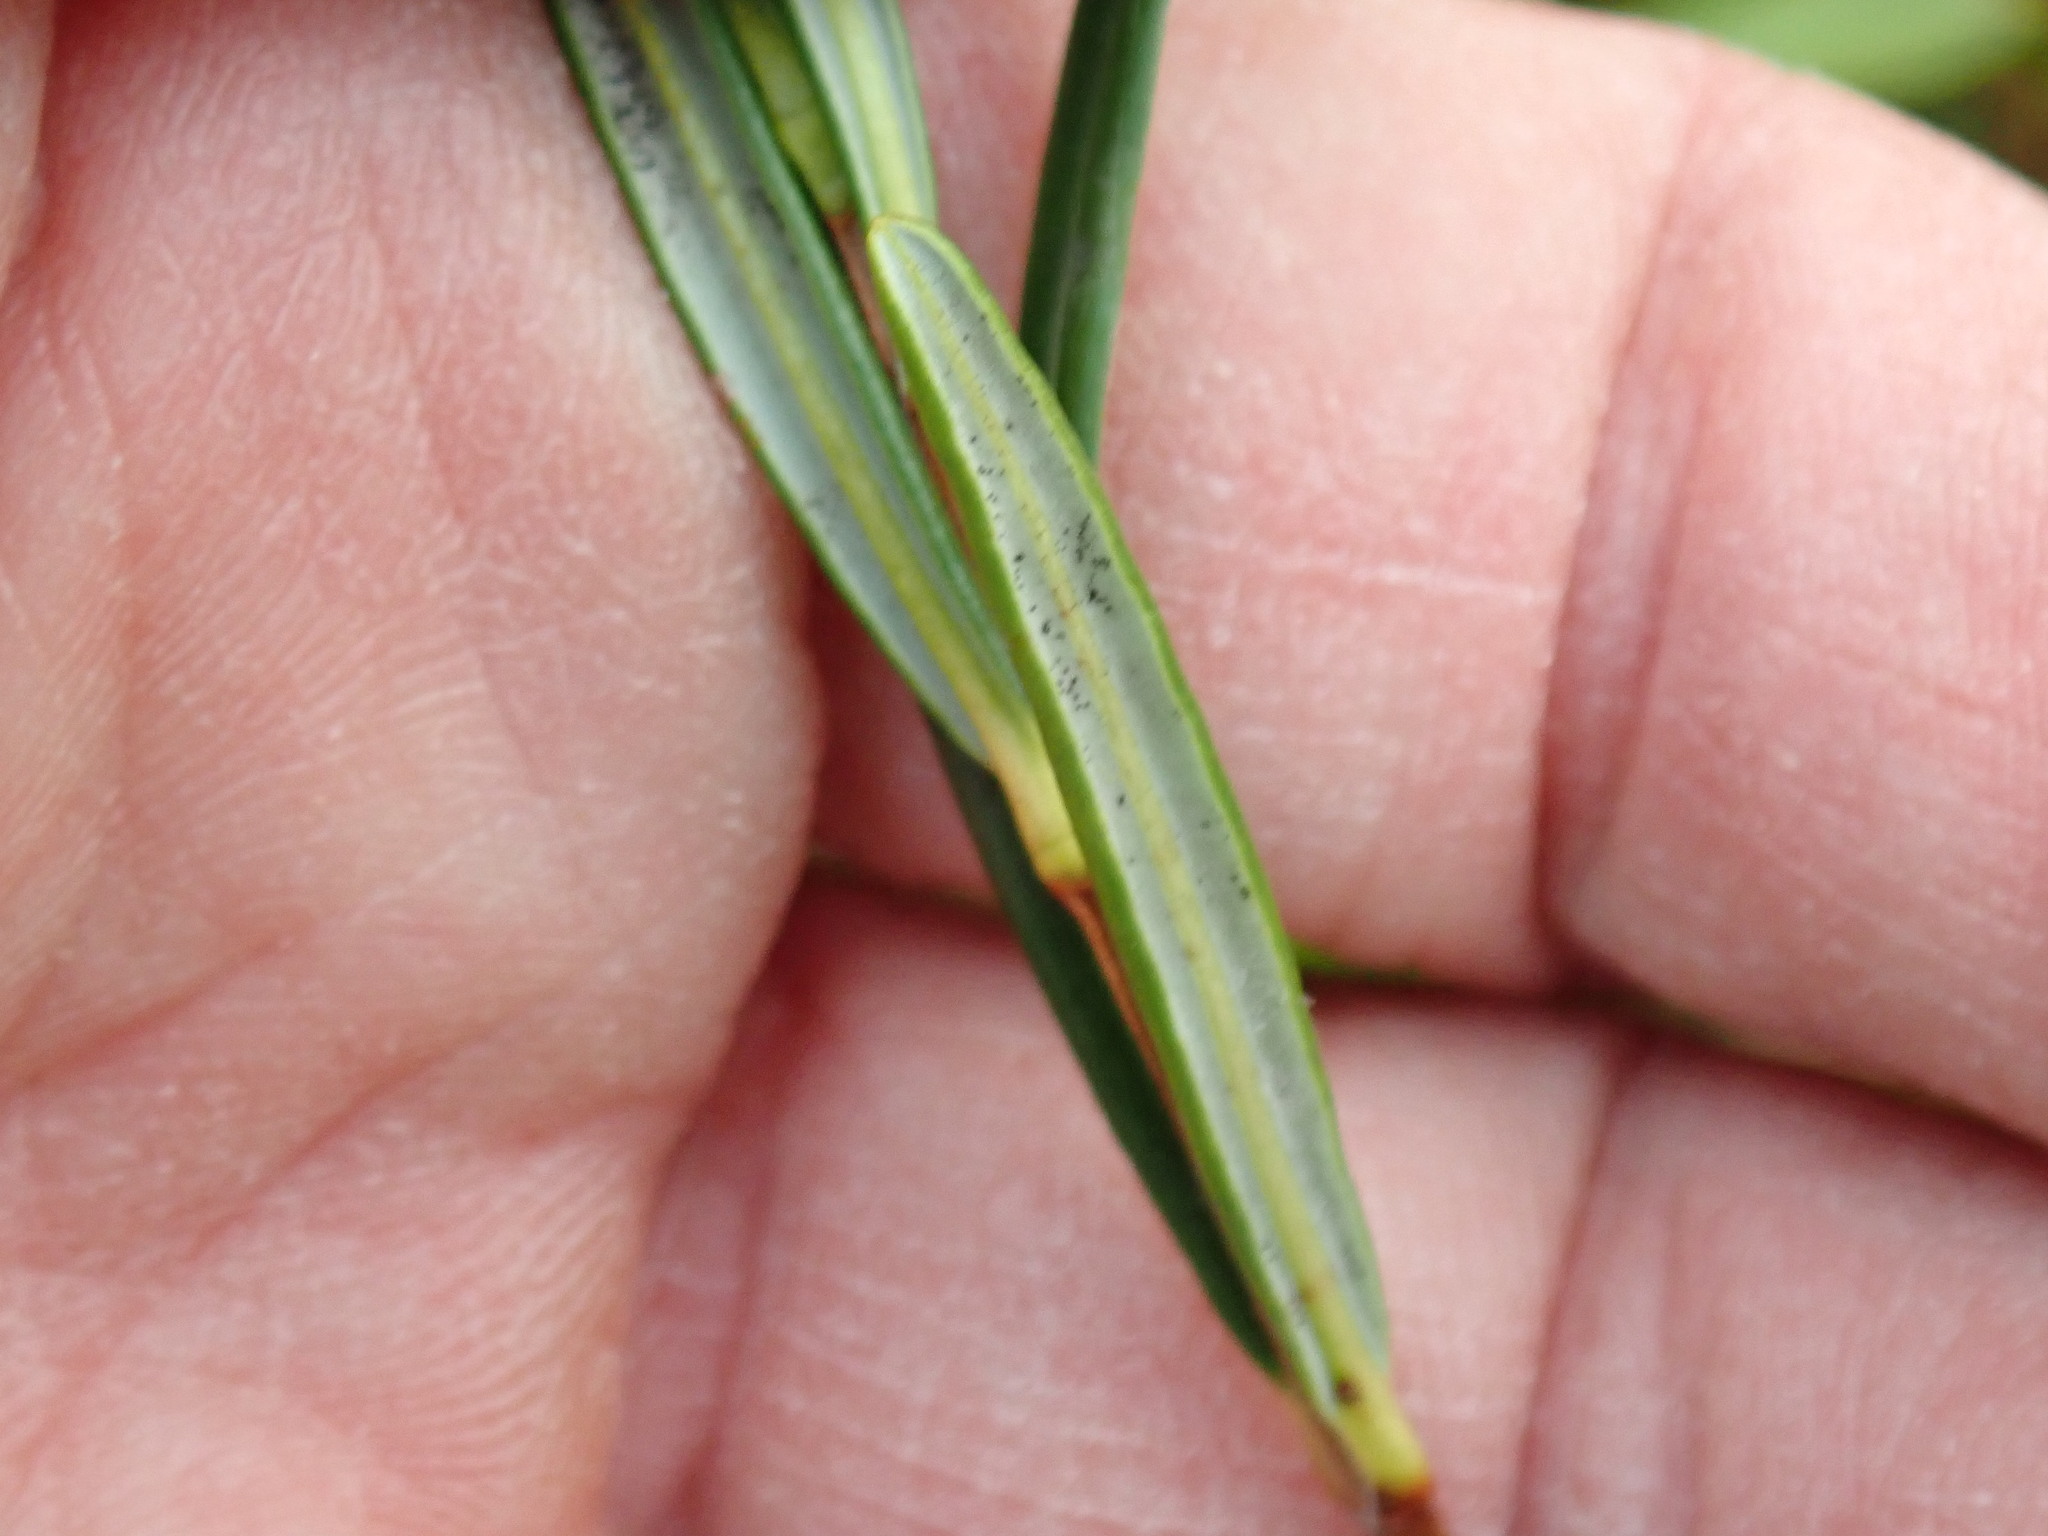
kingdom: Plantae
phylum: Tracheophyta
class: Magnoliopsida
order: Ericales
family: Ericaceae
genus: Kalmia
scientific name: Kalmia polifolia
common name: Bog-laurel
